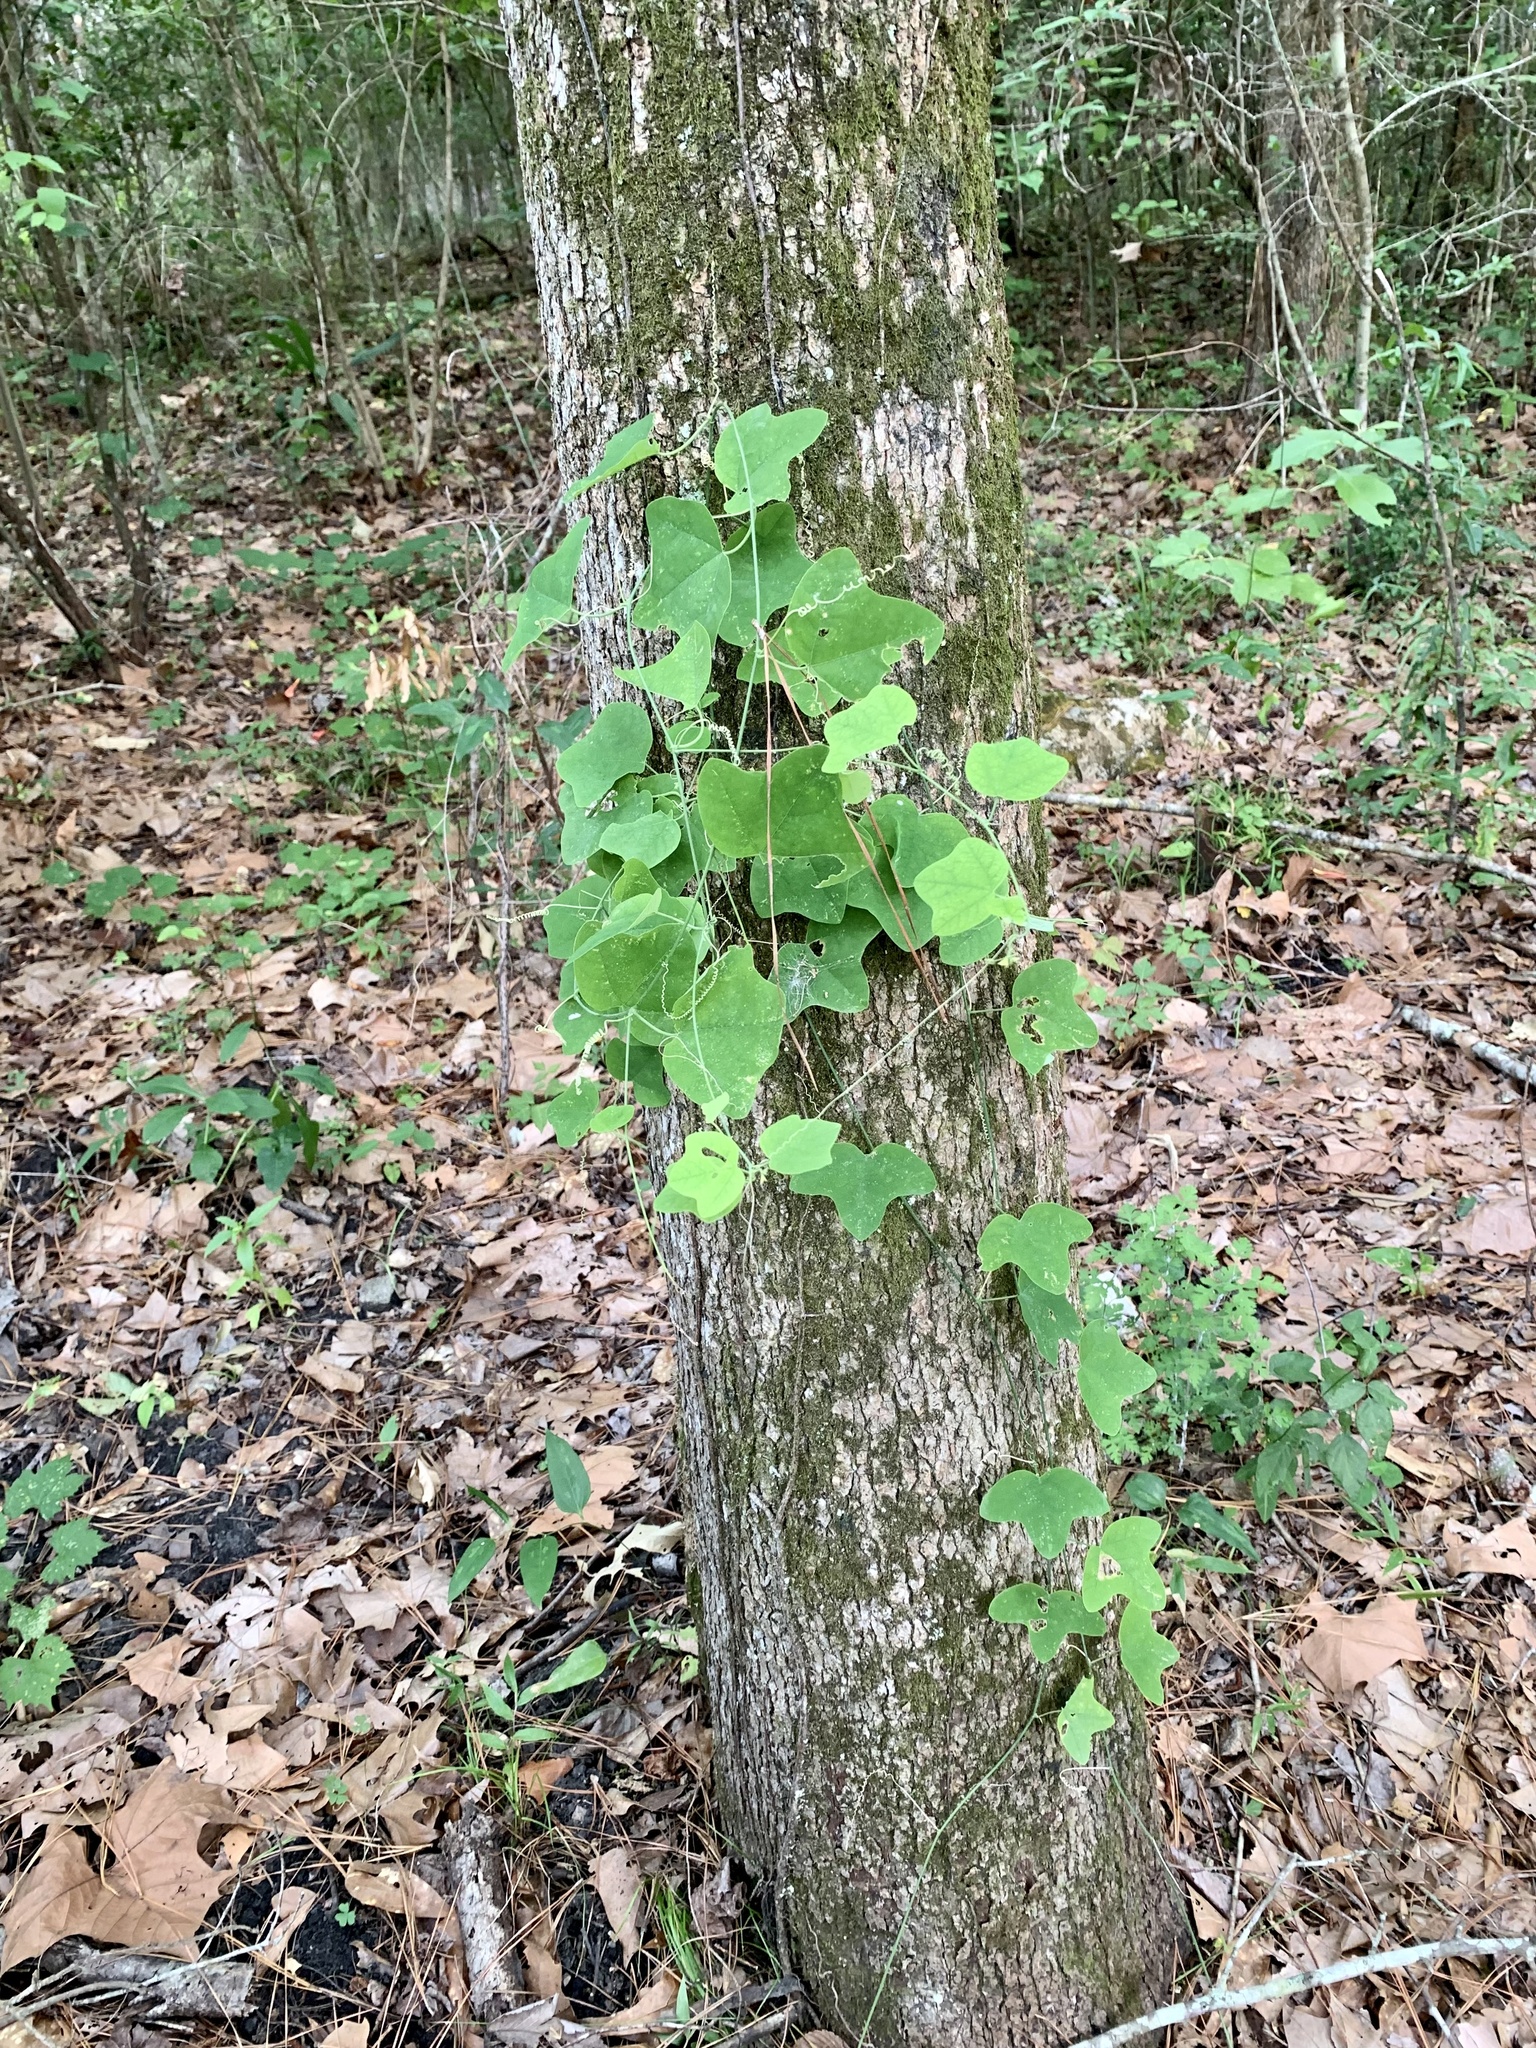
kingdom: Plantae
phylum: Tracheophyta
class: Magnoliopsida
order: Malpighiales
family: Passifloraceae
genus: Passiflora
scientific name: Passiflora lutea
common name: Yellow passionflower
